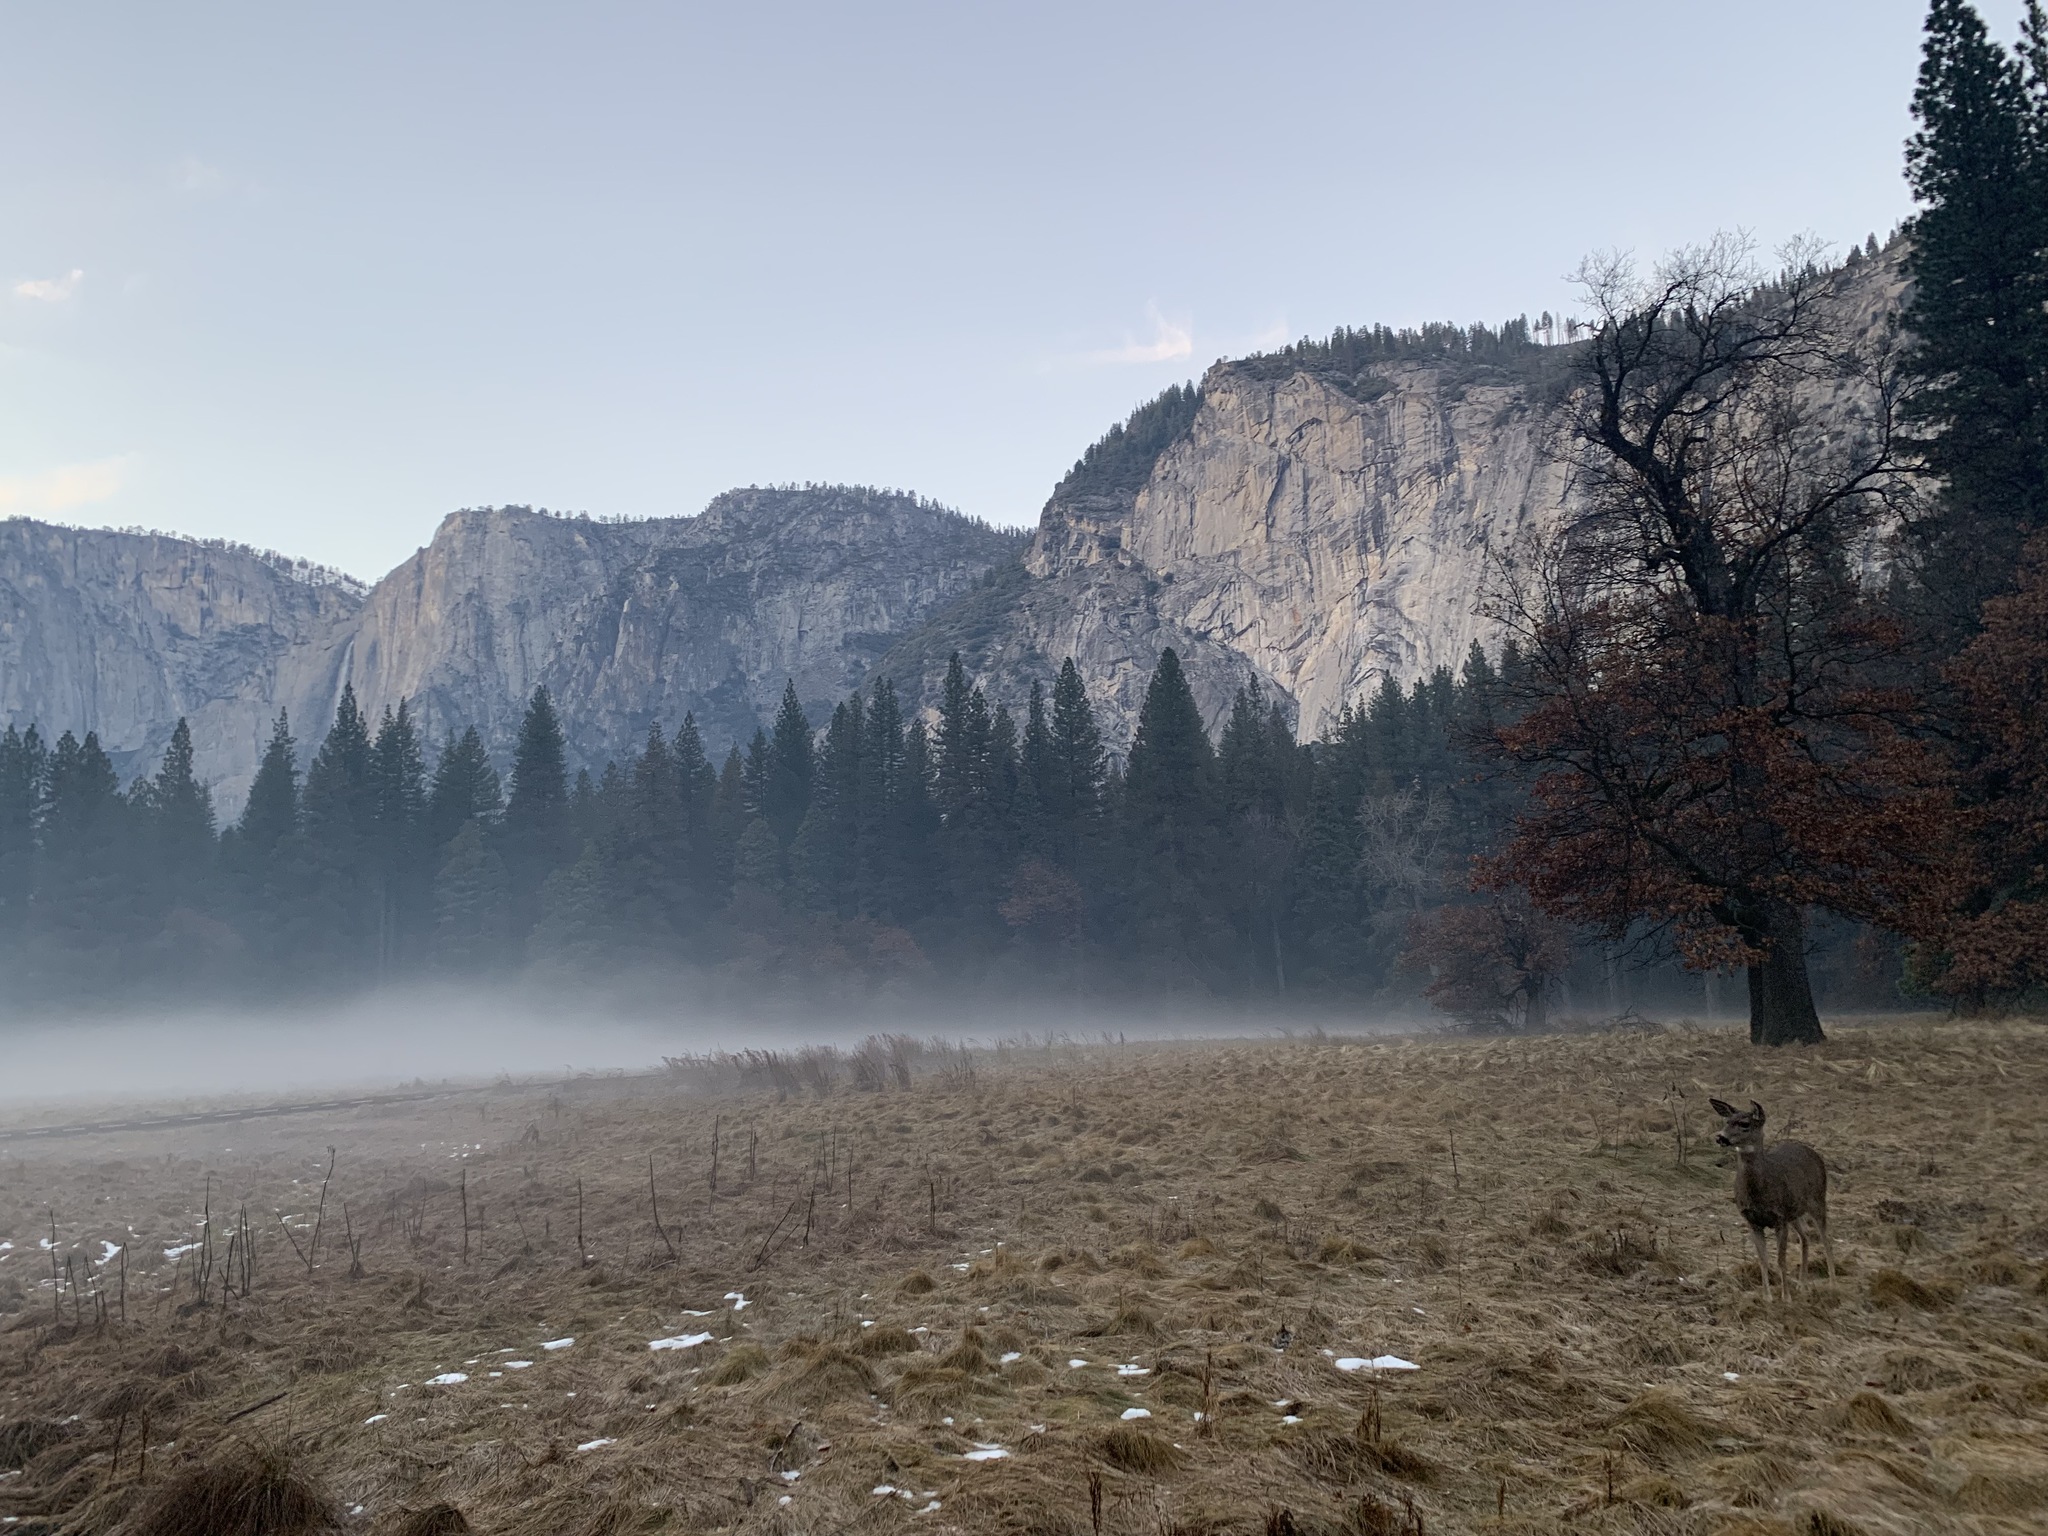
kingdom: Animalia
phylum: Chordata
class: Mammalia
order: Artiodactyla
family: Cervidae
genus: Odocoileus
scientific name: Odocoileus hemionus
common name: Mule deer
